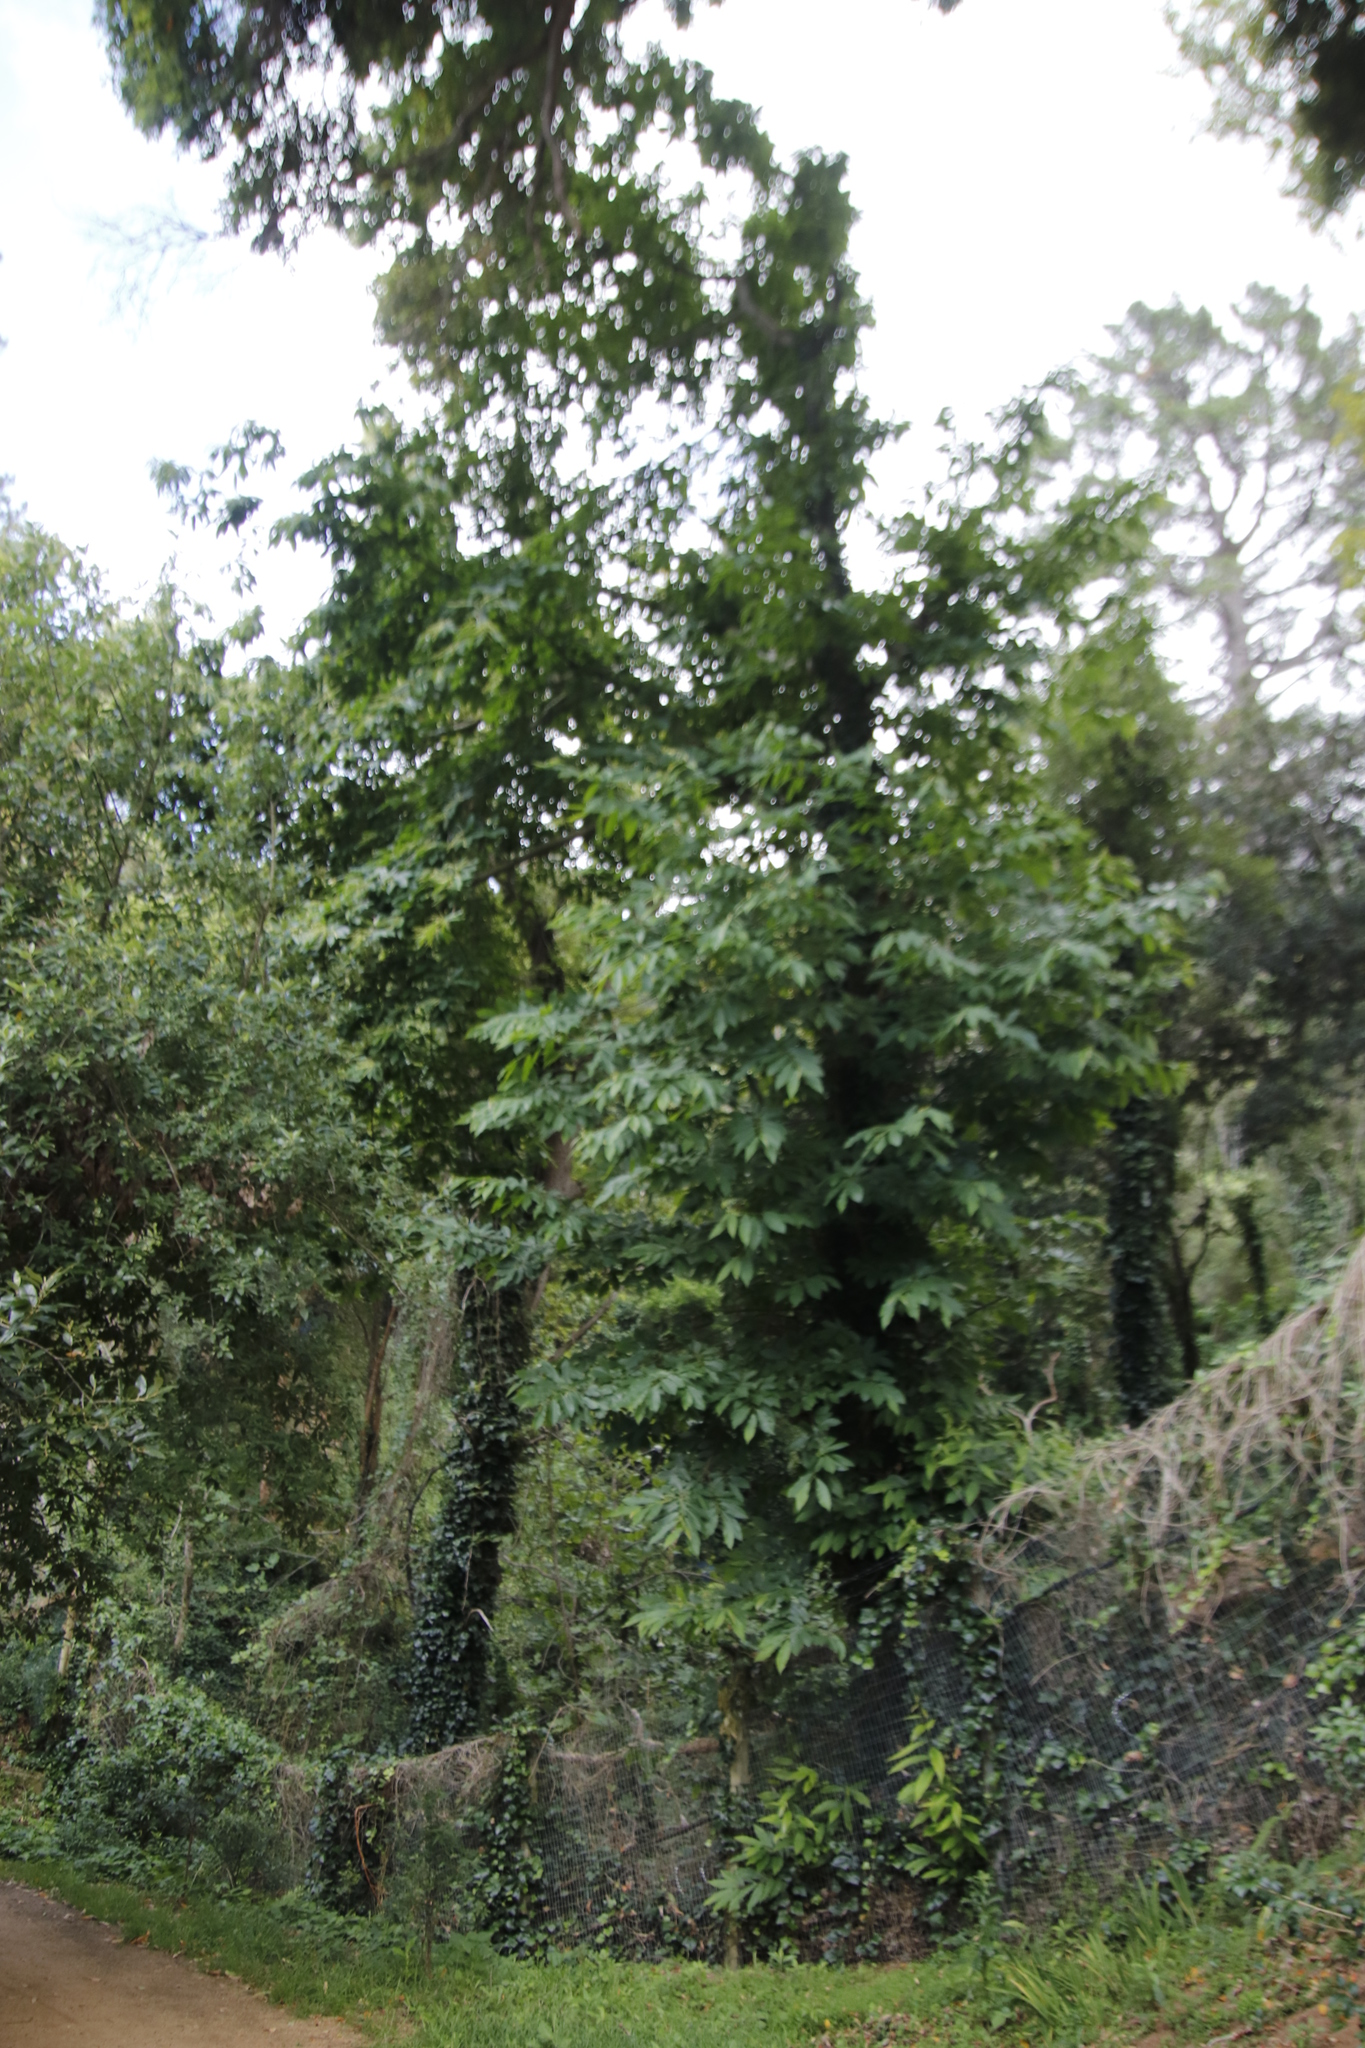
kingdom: Plantae
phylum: Tracheophyta
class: Magnoliopsida
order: Fagales
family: Fagaceae
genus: Castanea
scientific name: Castanea sativa
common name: Sweet chestnut
